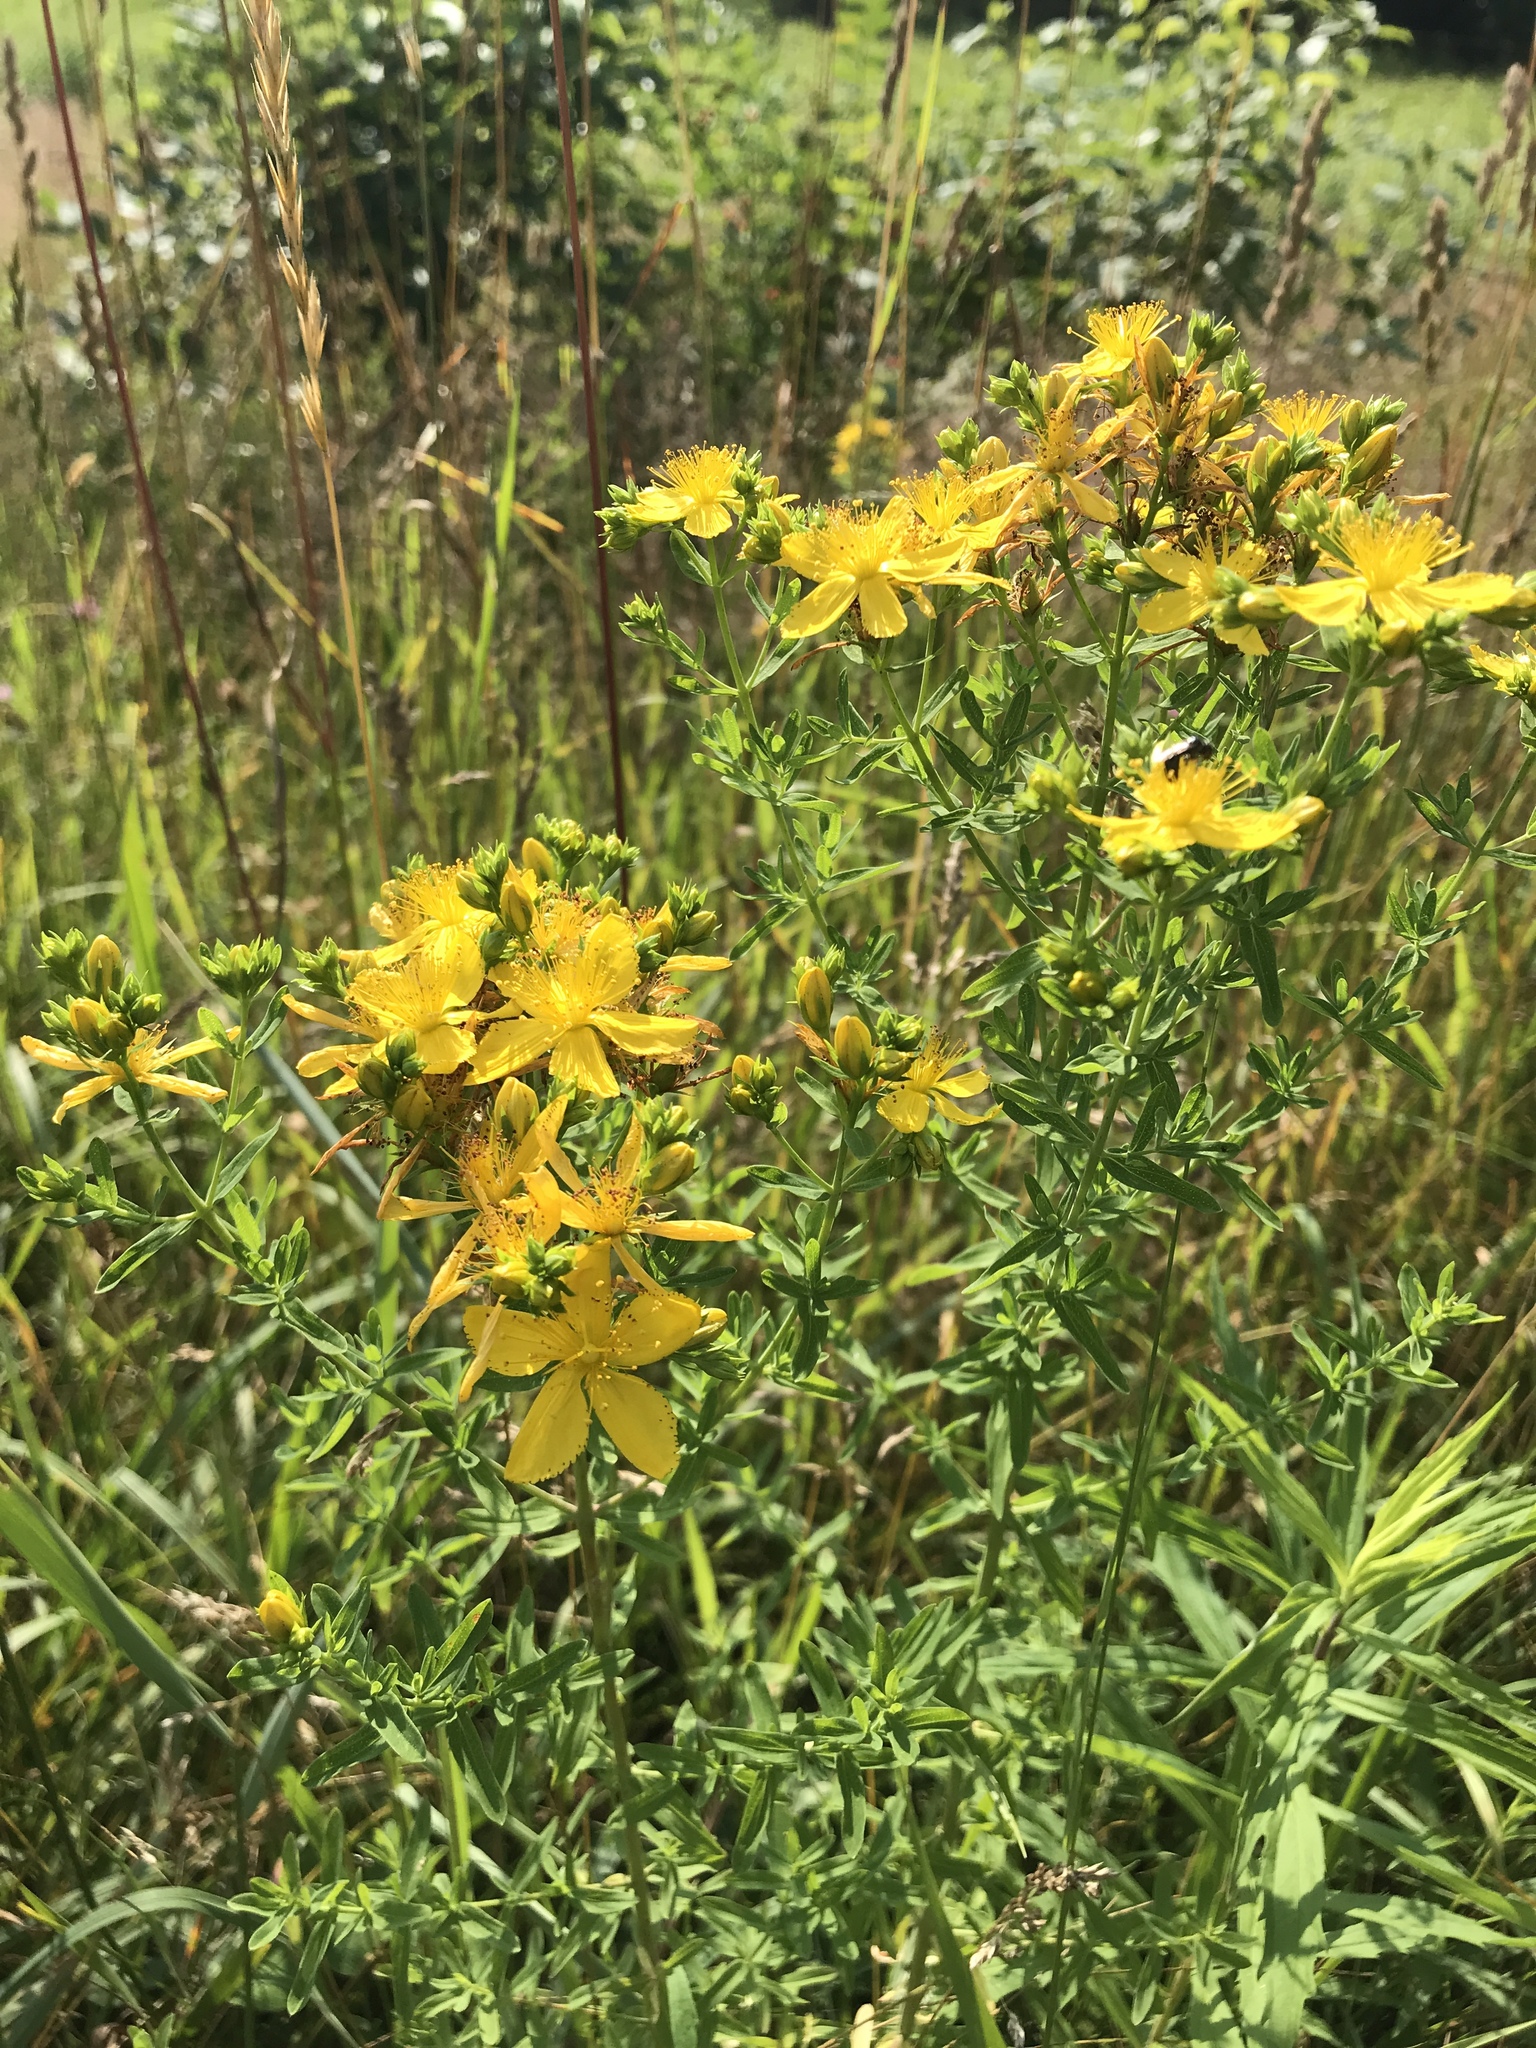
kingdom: Plantae
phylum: Tracheophyta
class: Magnoliopsida
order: Malpighiales
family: Hypericaceae
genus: Hypericum
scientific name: Hypericum perforatum
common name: Common st. johnswort
